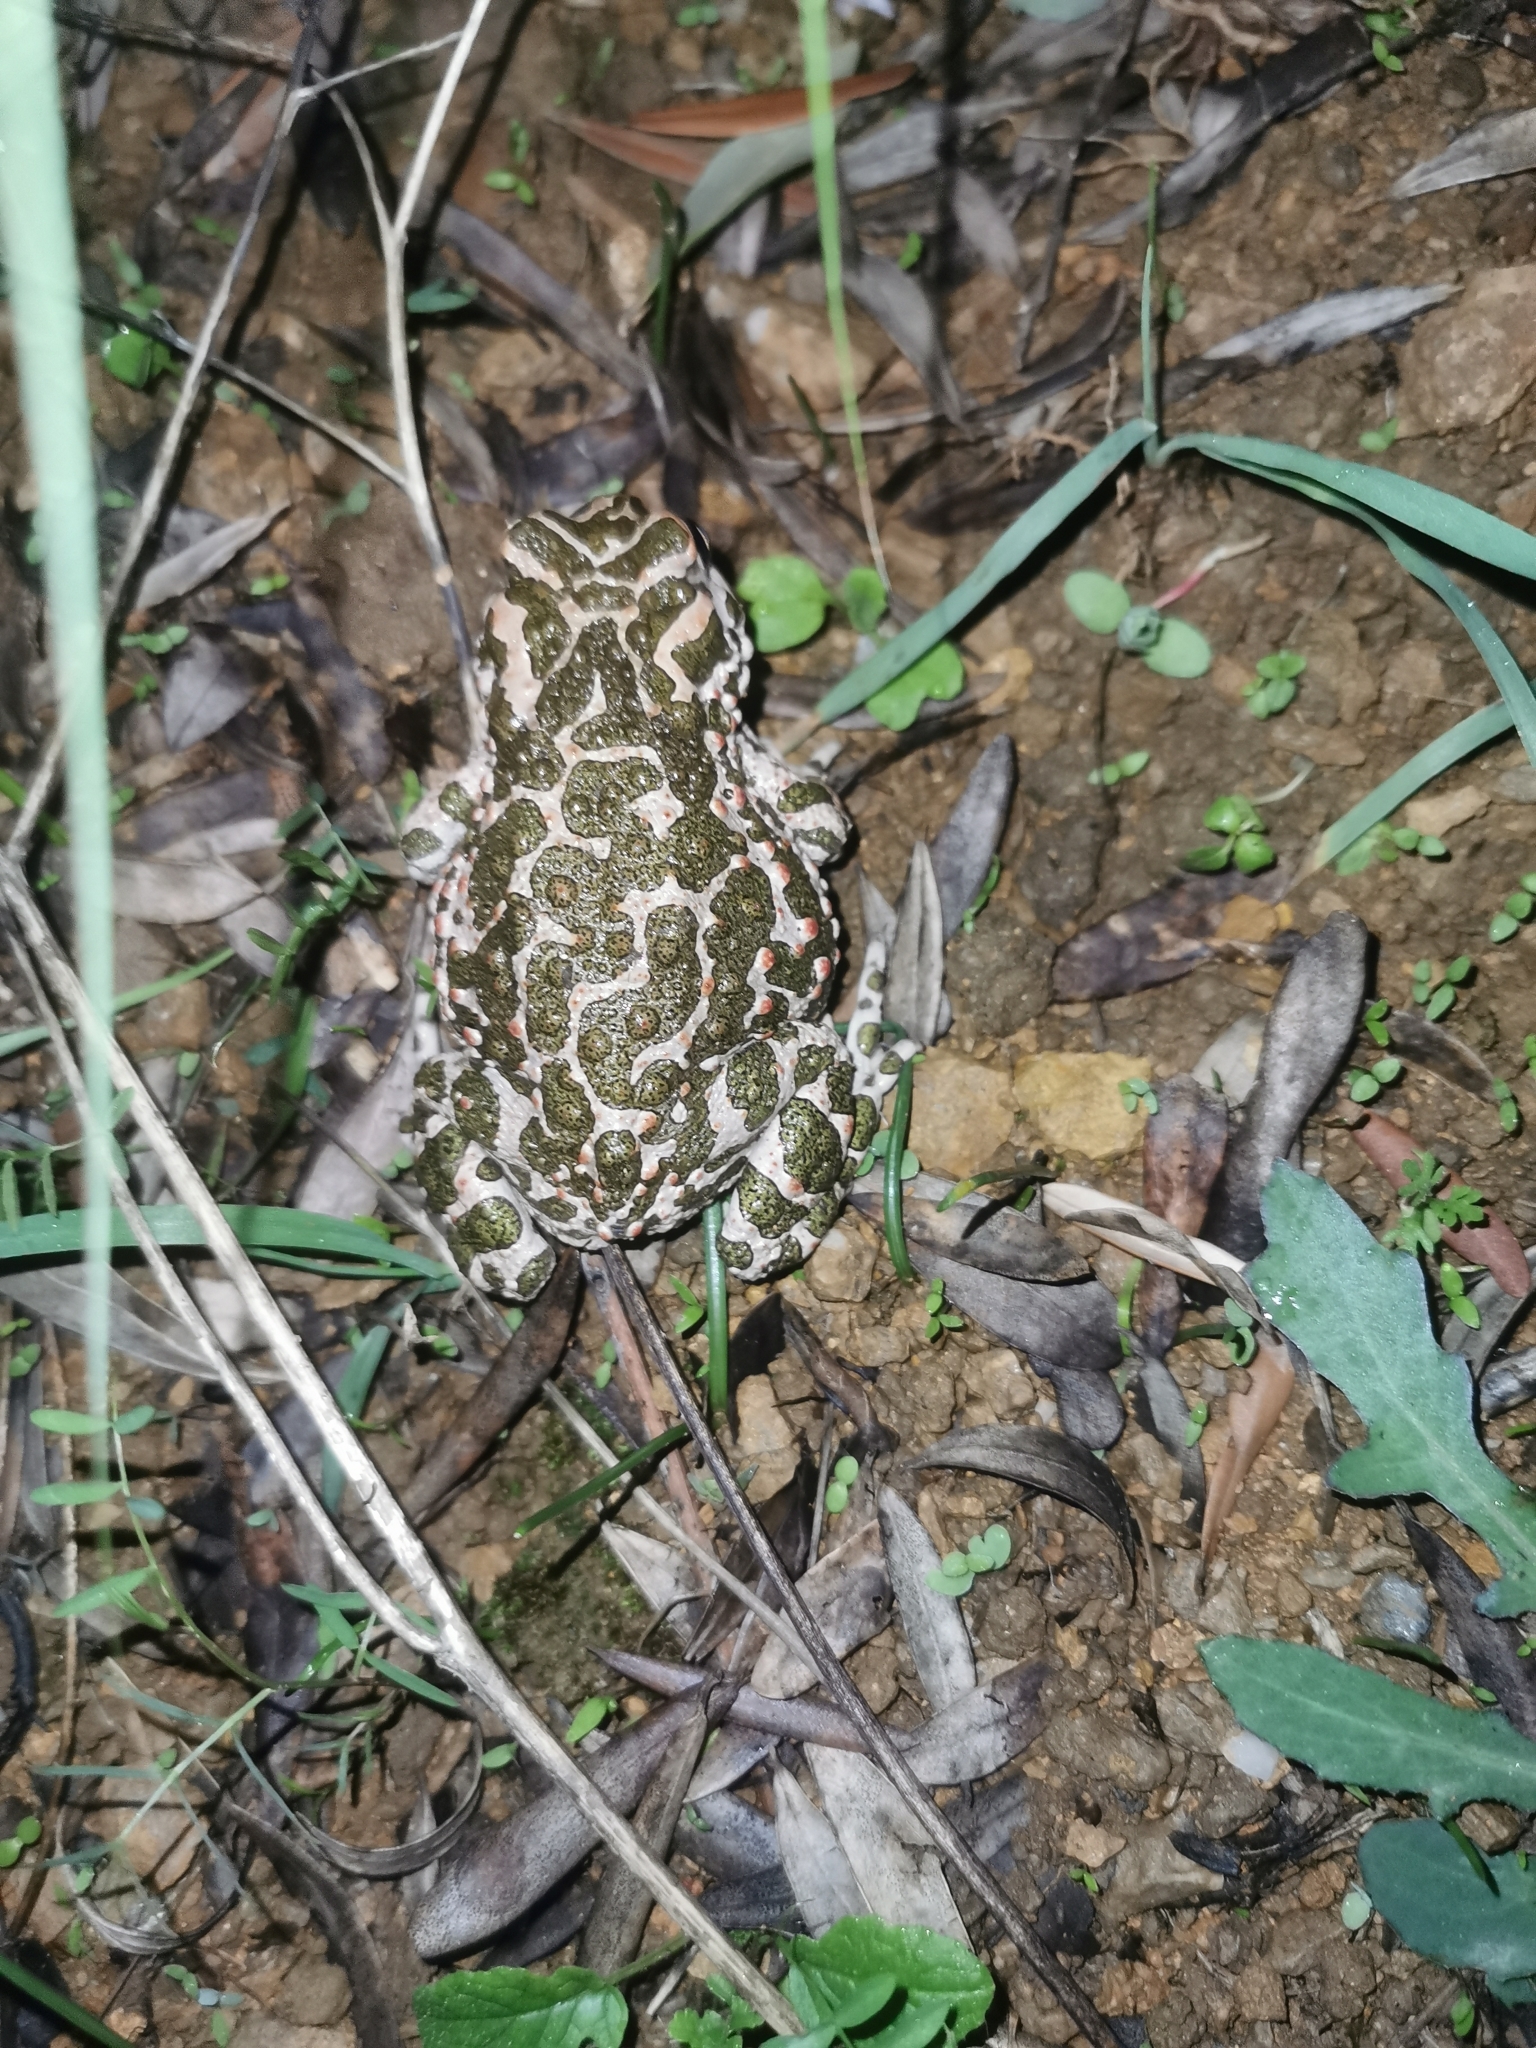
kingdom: Animalia
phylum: Chordata
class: Amphibia
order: Anura
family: Bufonidae
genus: Bufotes
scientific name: Bufotes viridis
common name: European green toad
